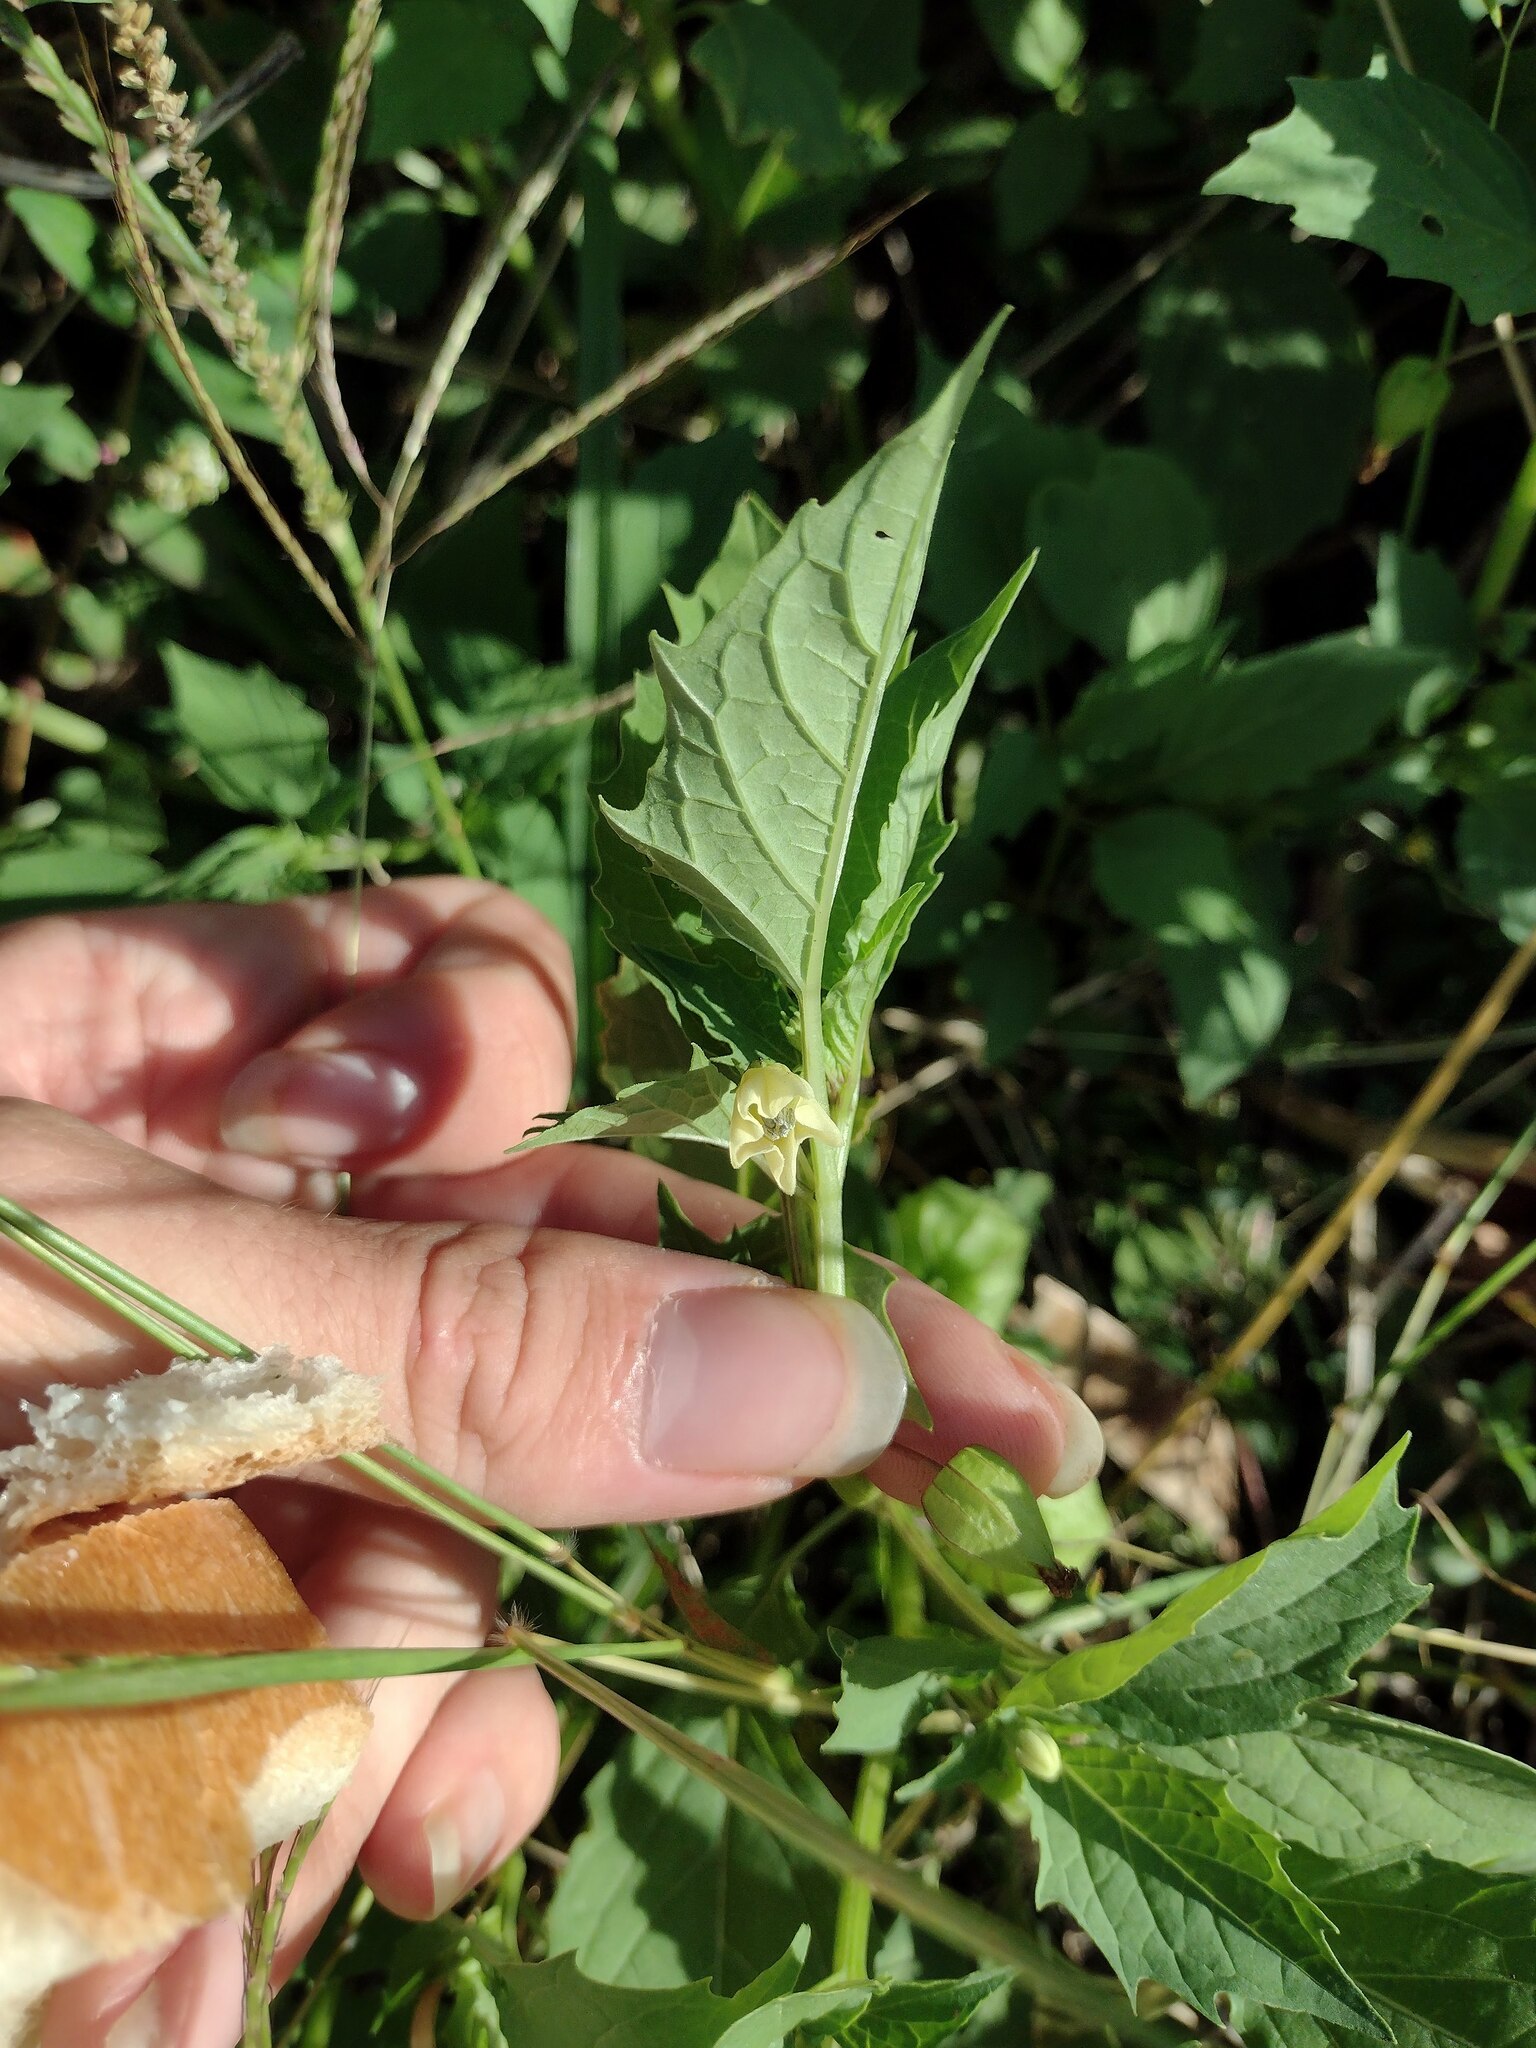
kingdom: Plantae
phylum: Tracheophyta
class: Magnoliopsida
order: Solanales
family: Solanaceae
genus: Physalis
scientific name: Physalis angulata
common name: Angular winter-cherry
